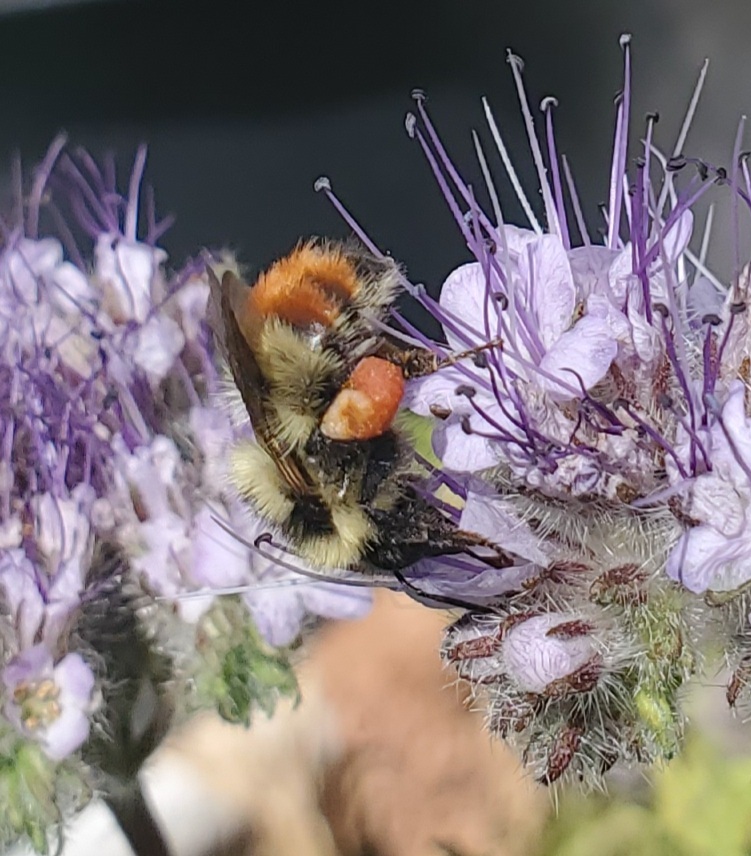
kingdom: Animalia
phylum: Arthropoda
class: Insecta
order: Hymenoptera
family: Apidae
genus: Pyrobombus
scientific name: Pyrobombus
